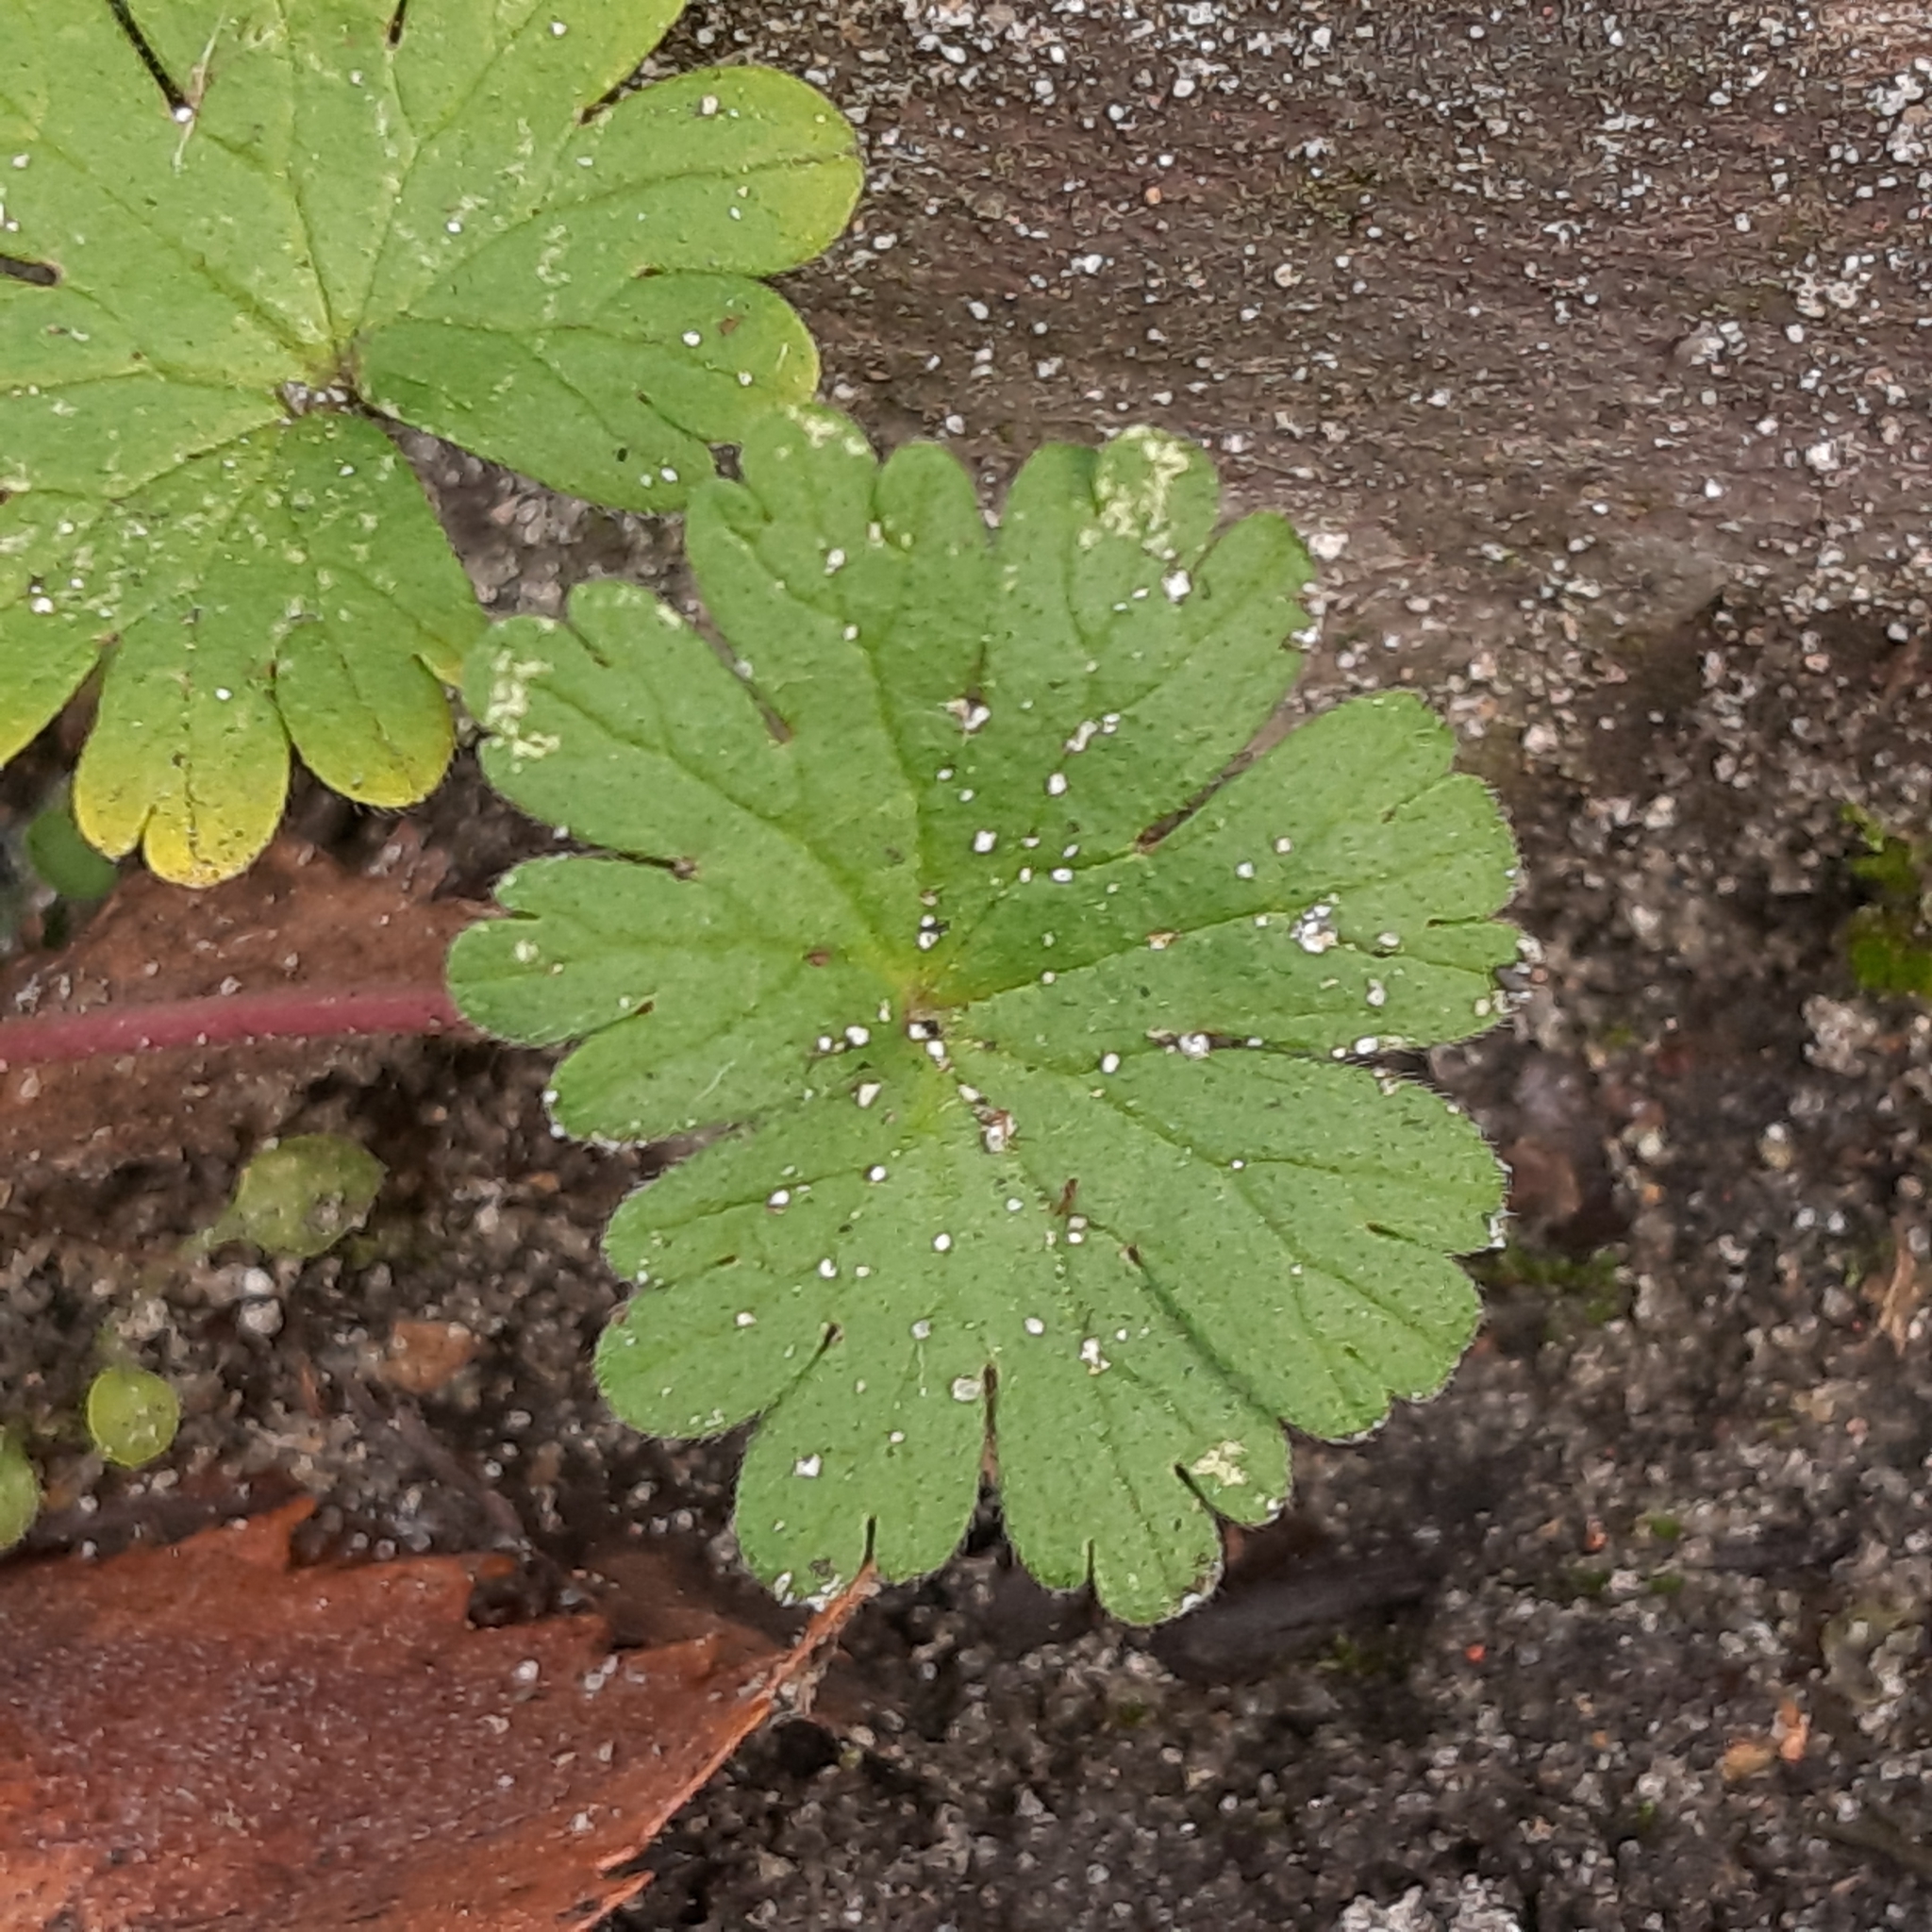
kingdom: Plantae
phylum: Tracheophyta
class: Magnoliopsida
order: Geraniales
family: Geraniaceae
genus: Geranium
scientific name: Geranium molle
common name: Dove's-foot crane's-bill
